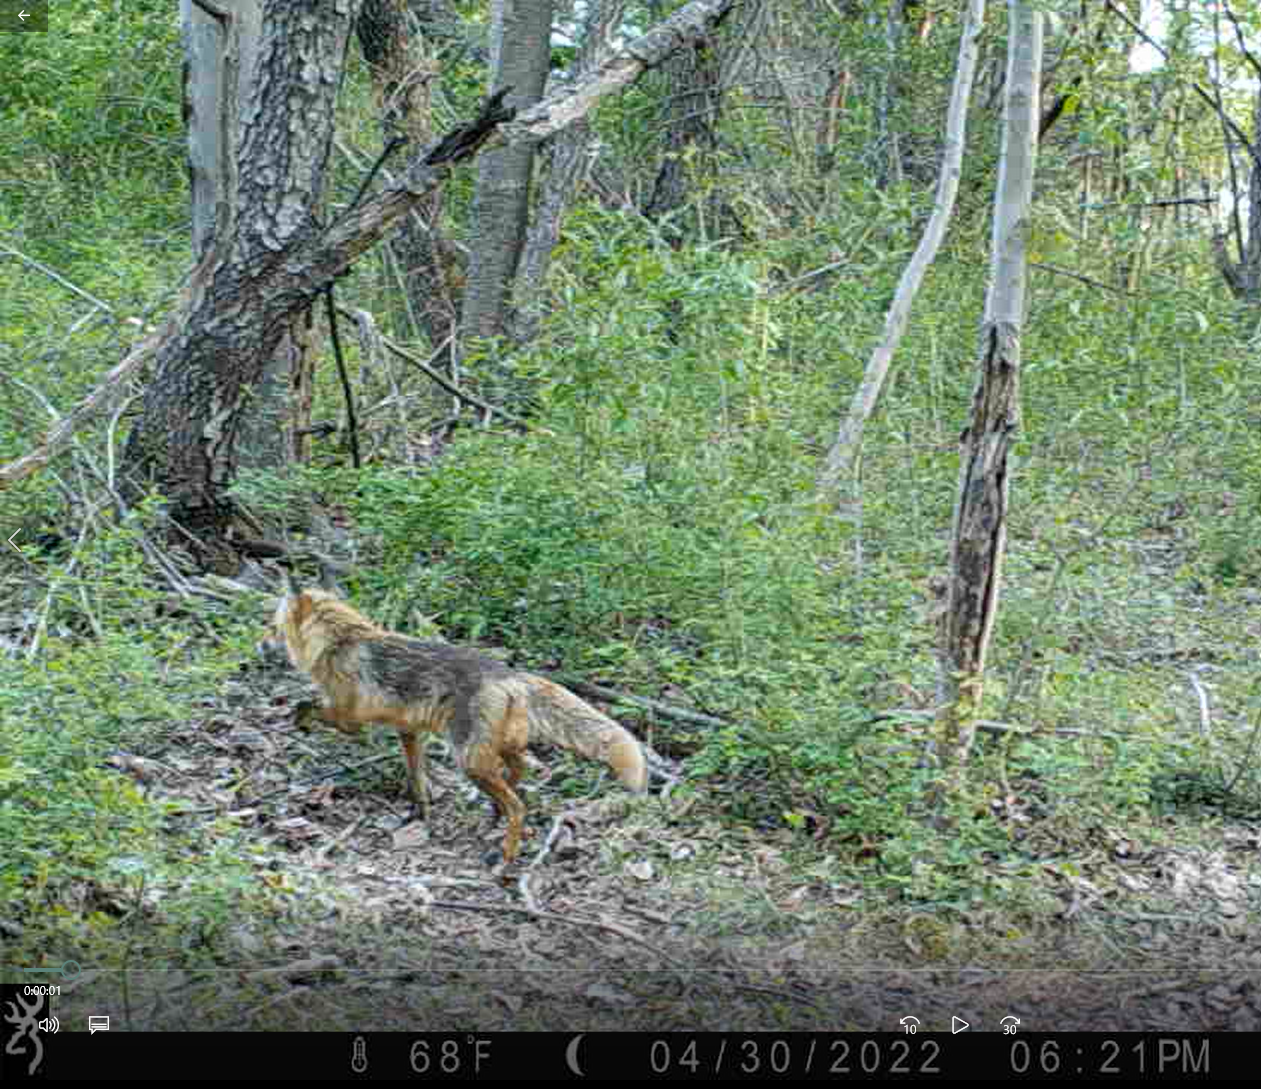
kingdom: Animalia
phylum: Chordata
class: Mammalia
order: Carnivora
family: Canidae
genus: Vulpes
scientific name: Vulpes vulpes
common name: Red fox
